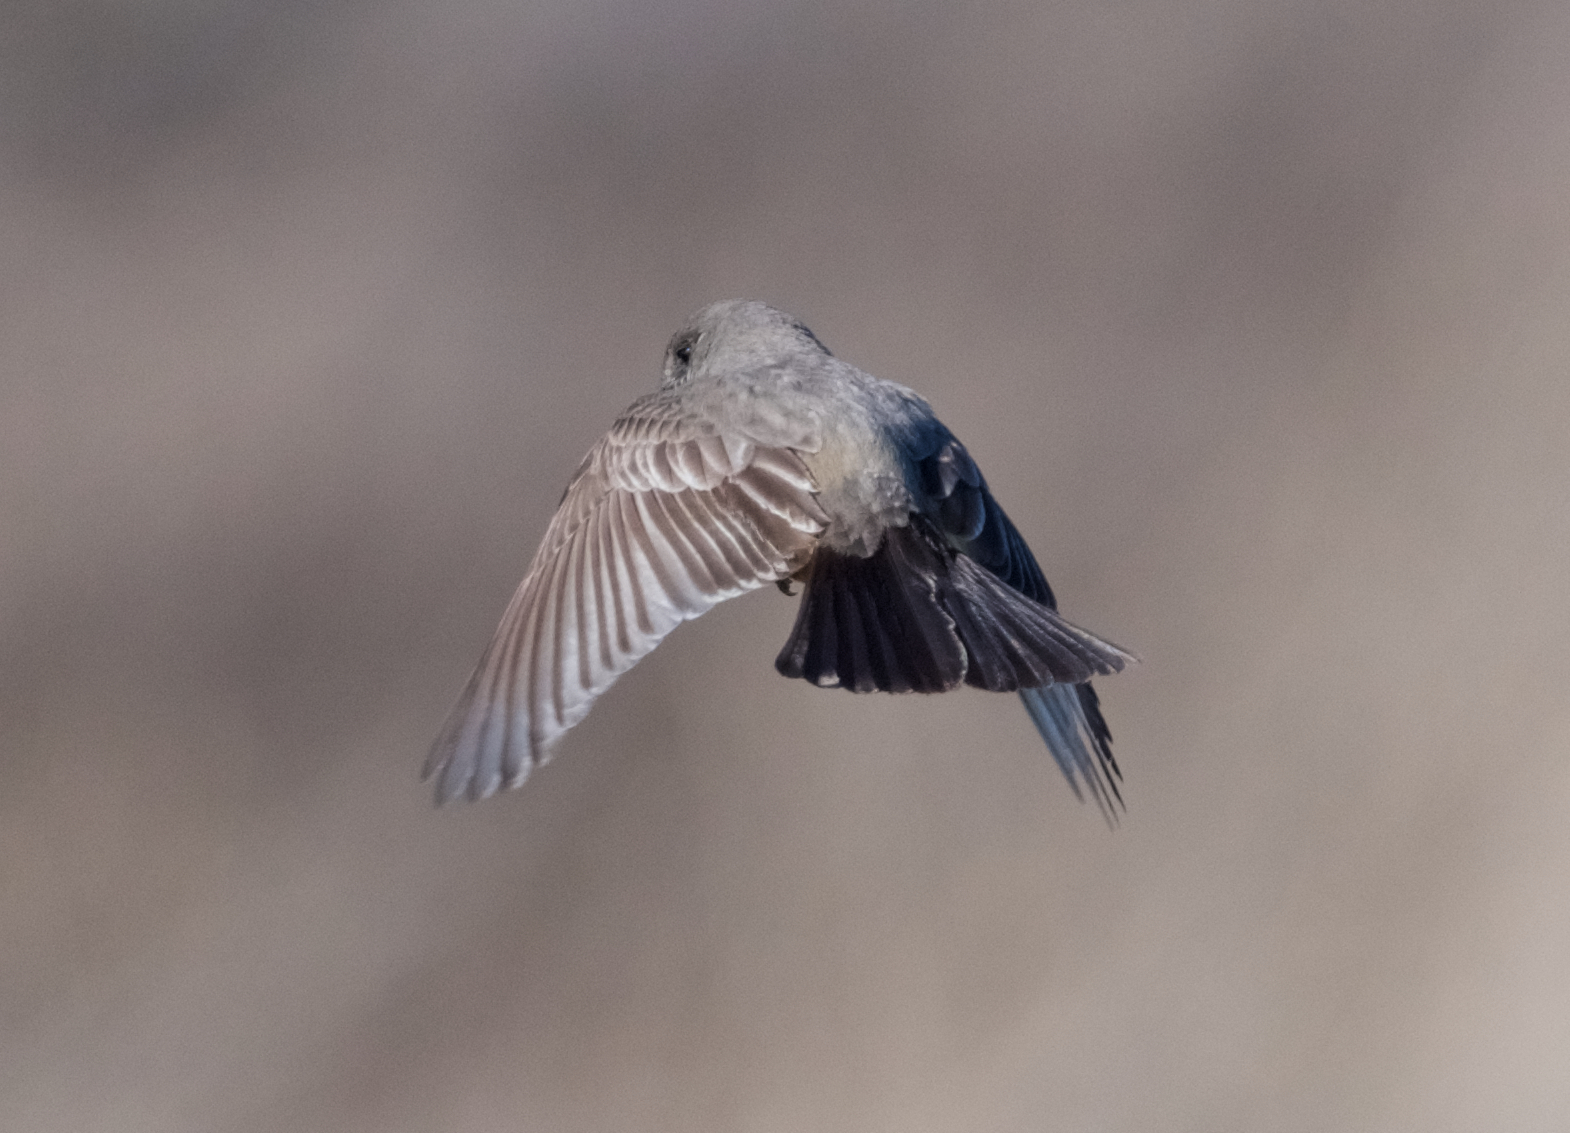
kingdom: Animalia
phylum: Chordata
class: Aves
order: Passeriformes
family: Tyrannidae
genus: Sayornis
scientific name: Sayornis saya
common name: Say's phoebe
